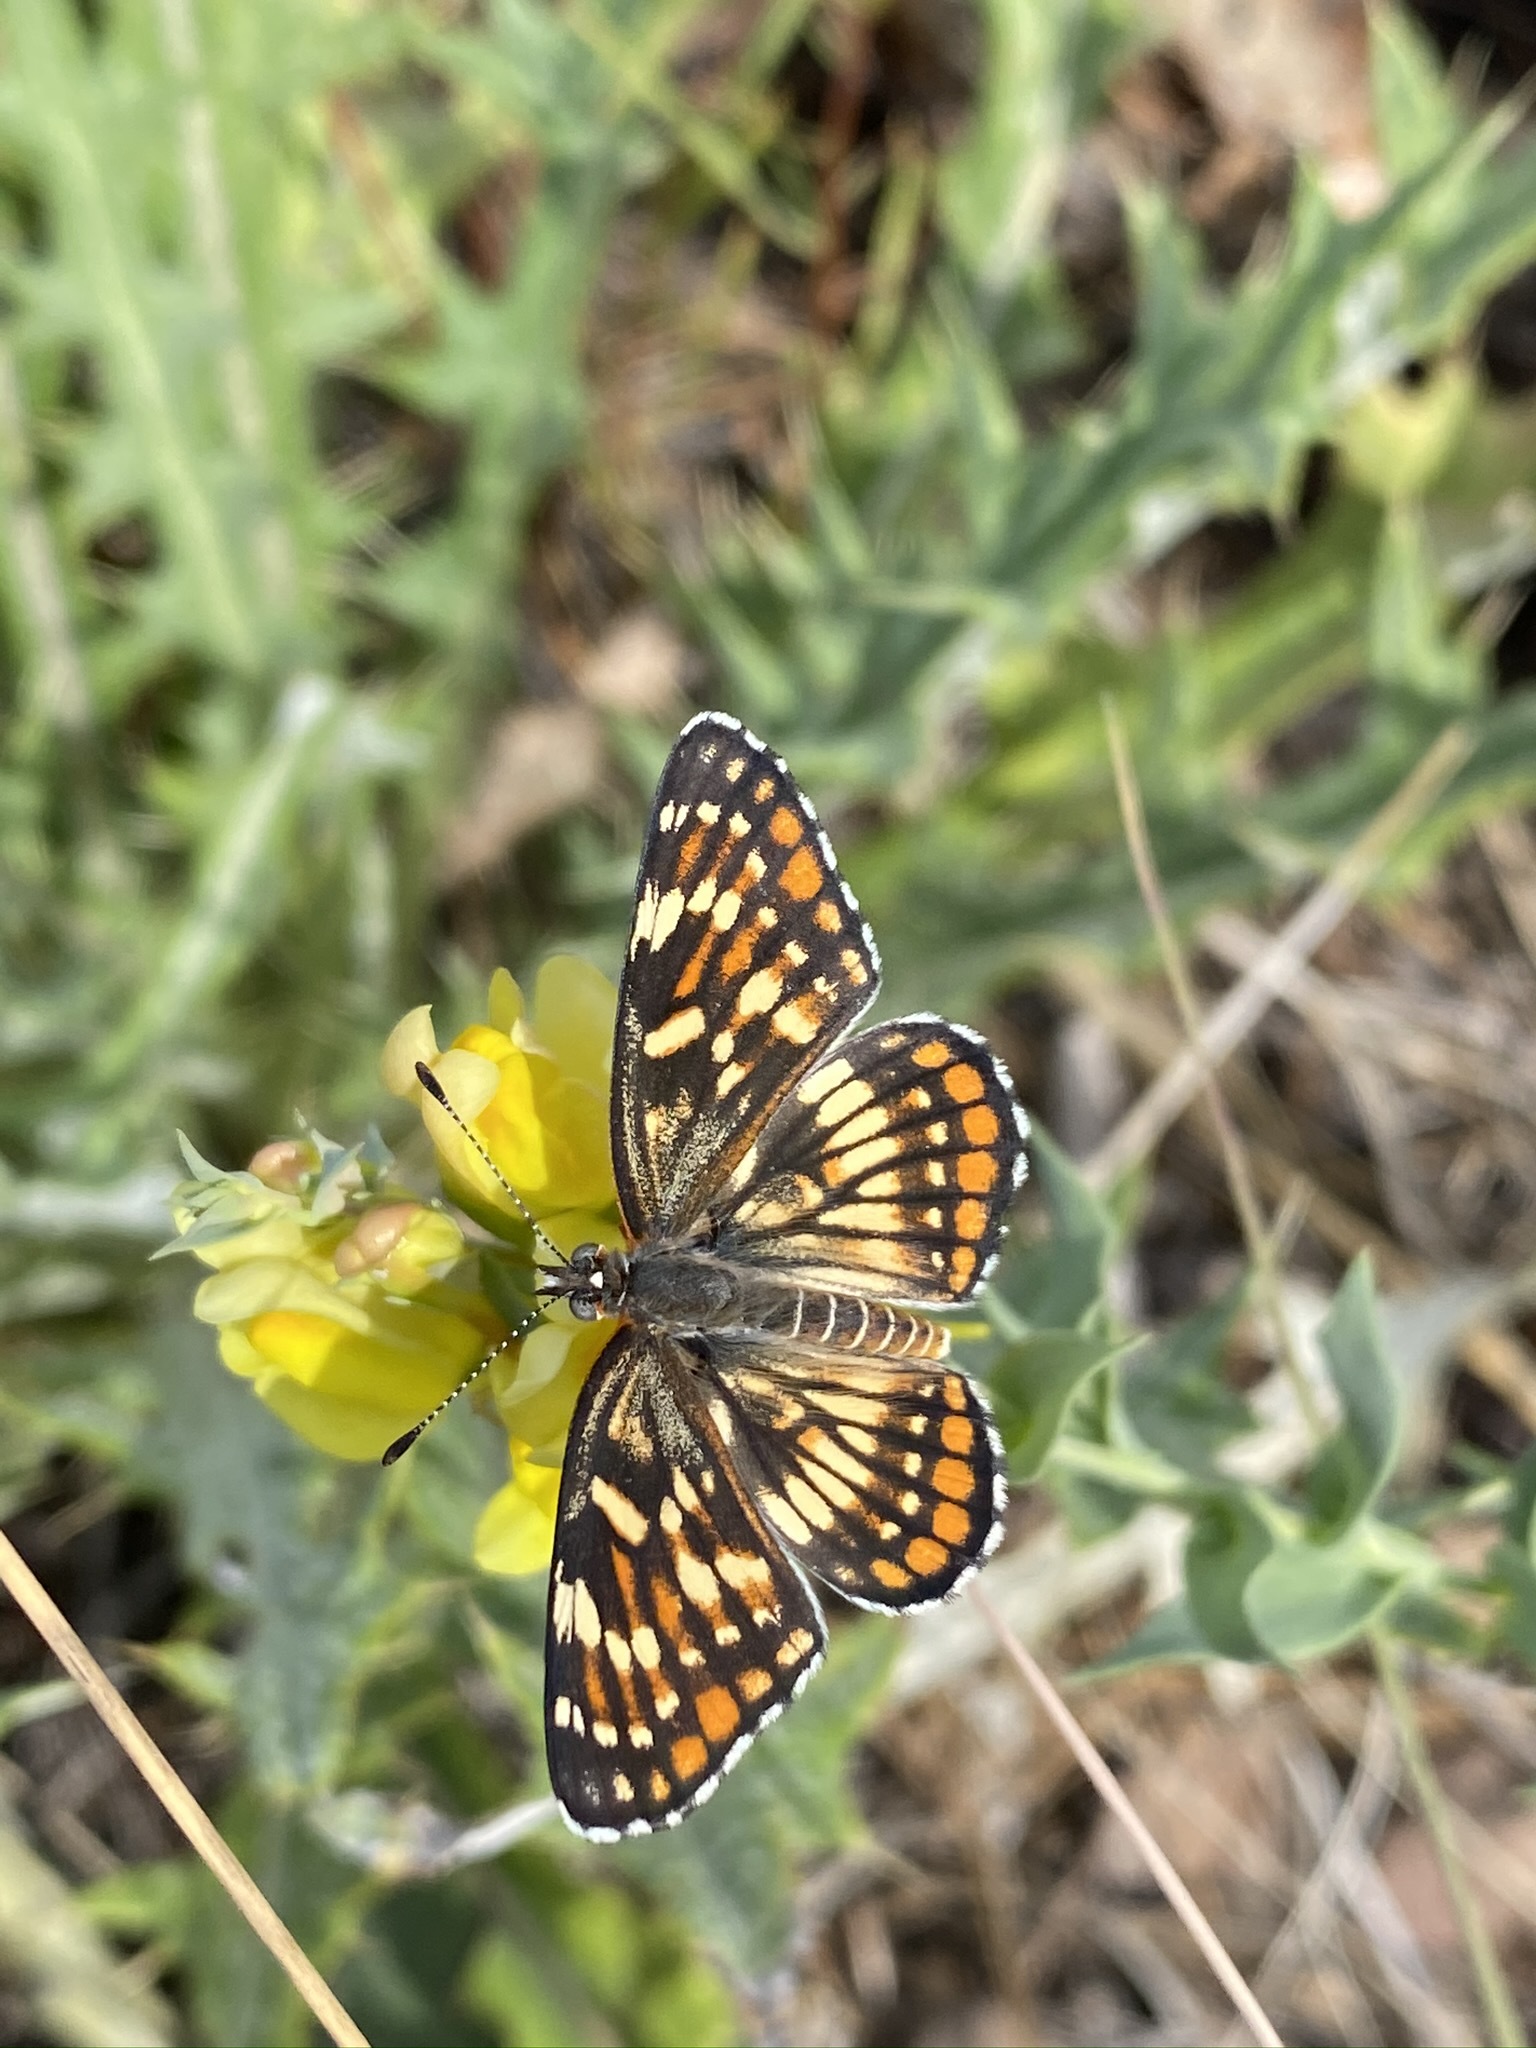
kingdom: Animalia
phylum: Arthropoda
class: Insecta
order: Lepidoptera
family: Nymphalidae
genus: Chlosyne
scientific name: Chlosyne
